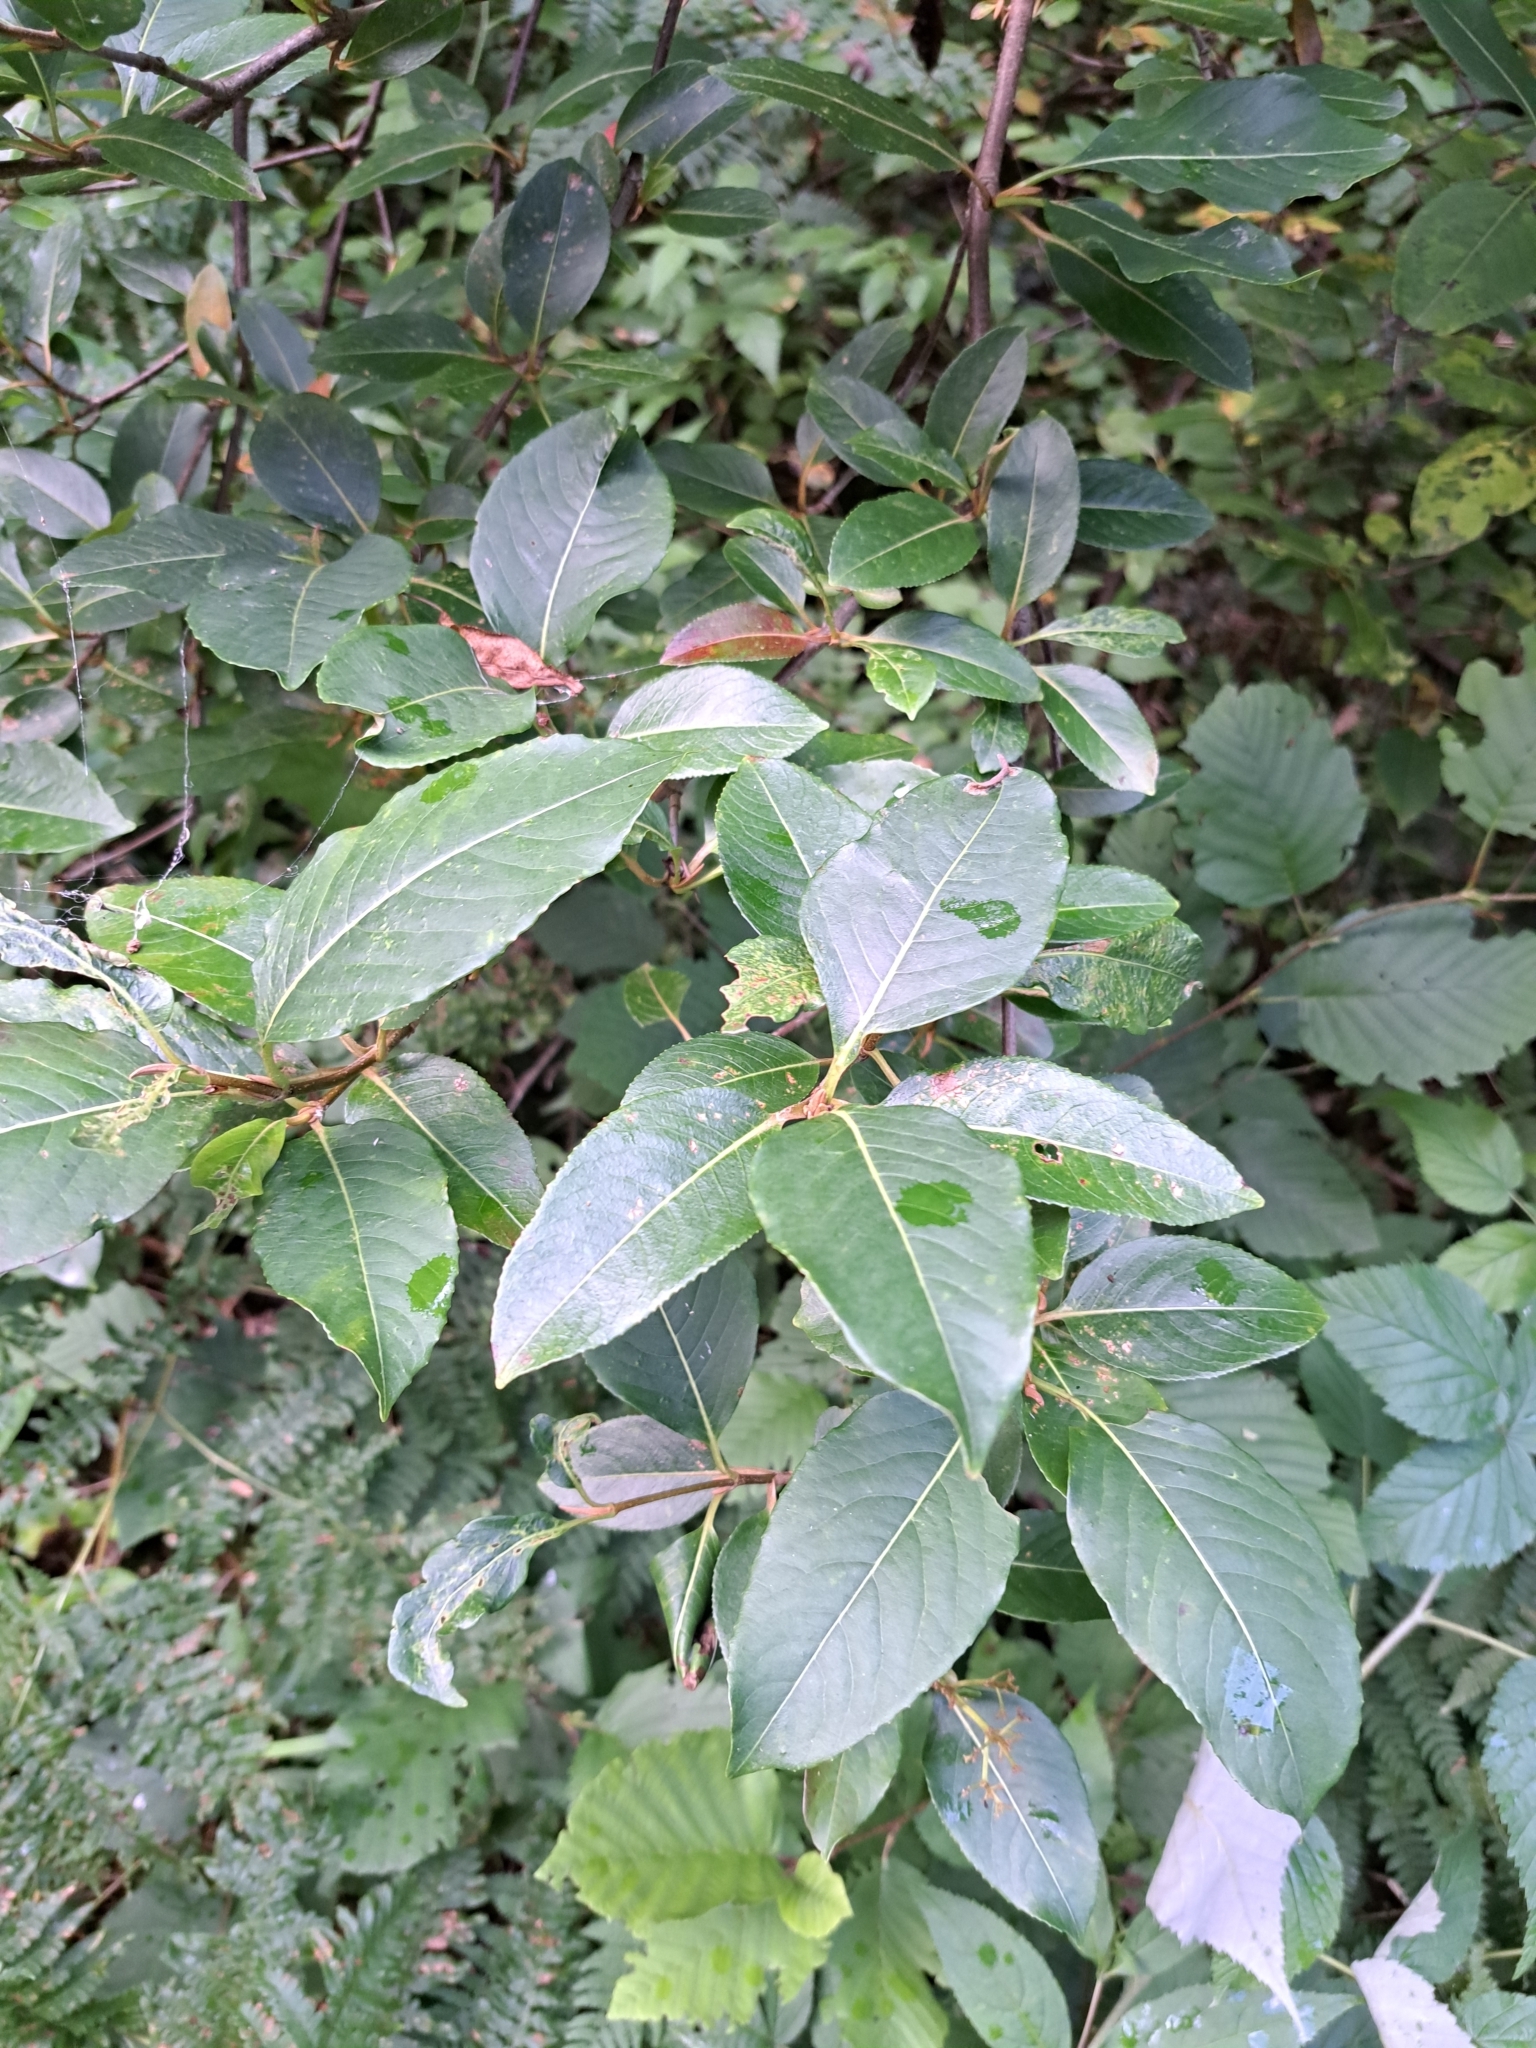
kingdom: Plantae
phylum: Tracheophyta
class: Magnoliopsida
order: Dipsacales
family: Viburnaceae
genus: Viburnum
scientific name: Viburnum cassinoides
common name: Swamp haw
